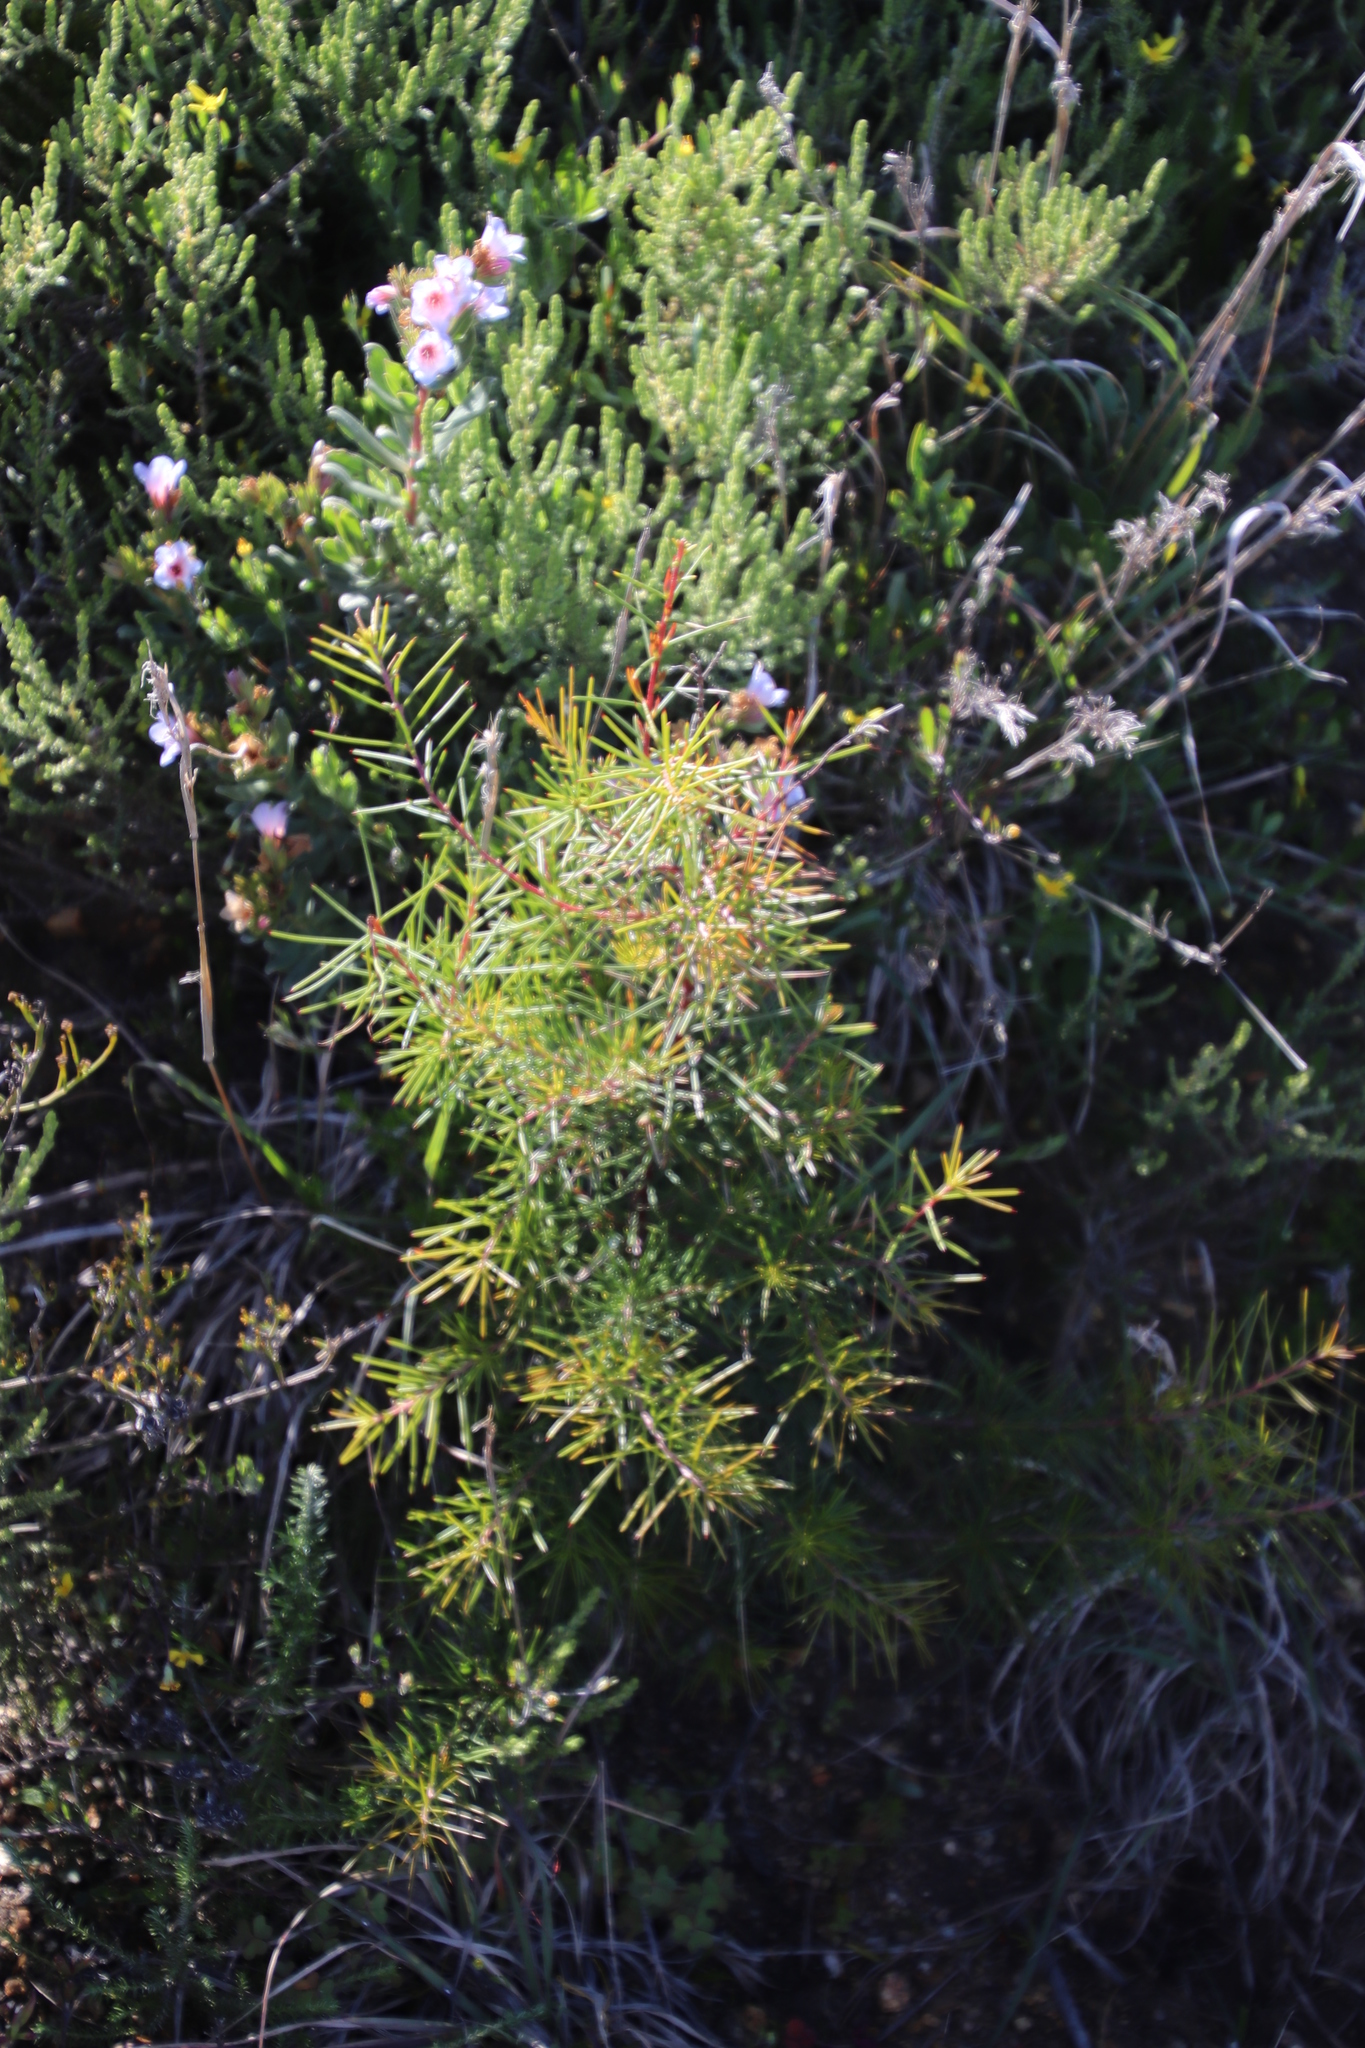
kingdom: Plantae
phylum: Tracheophyta
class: Magnoliopsida
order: Proteales
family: Proteaceae
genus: Hakea
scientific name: Hakea sericea
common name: Needle bush
